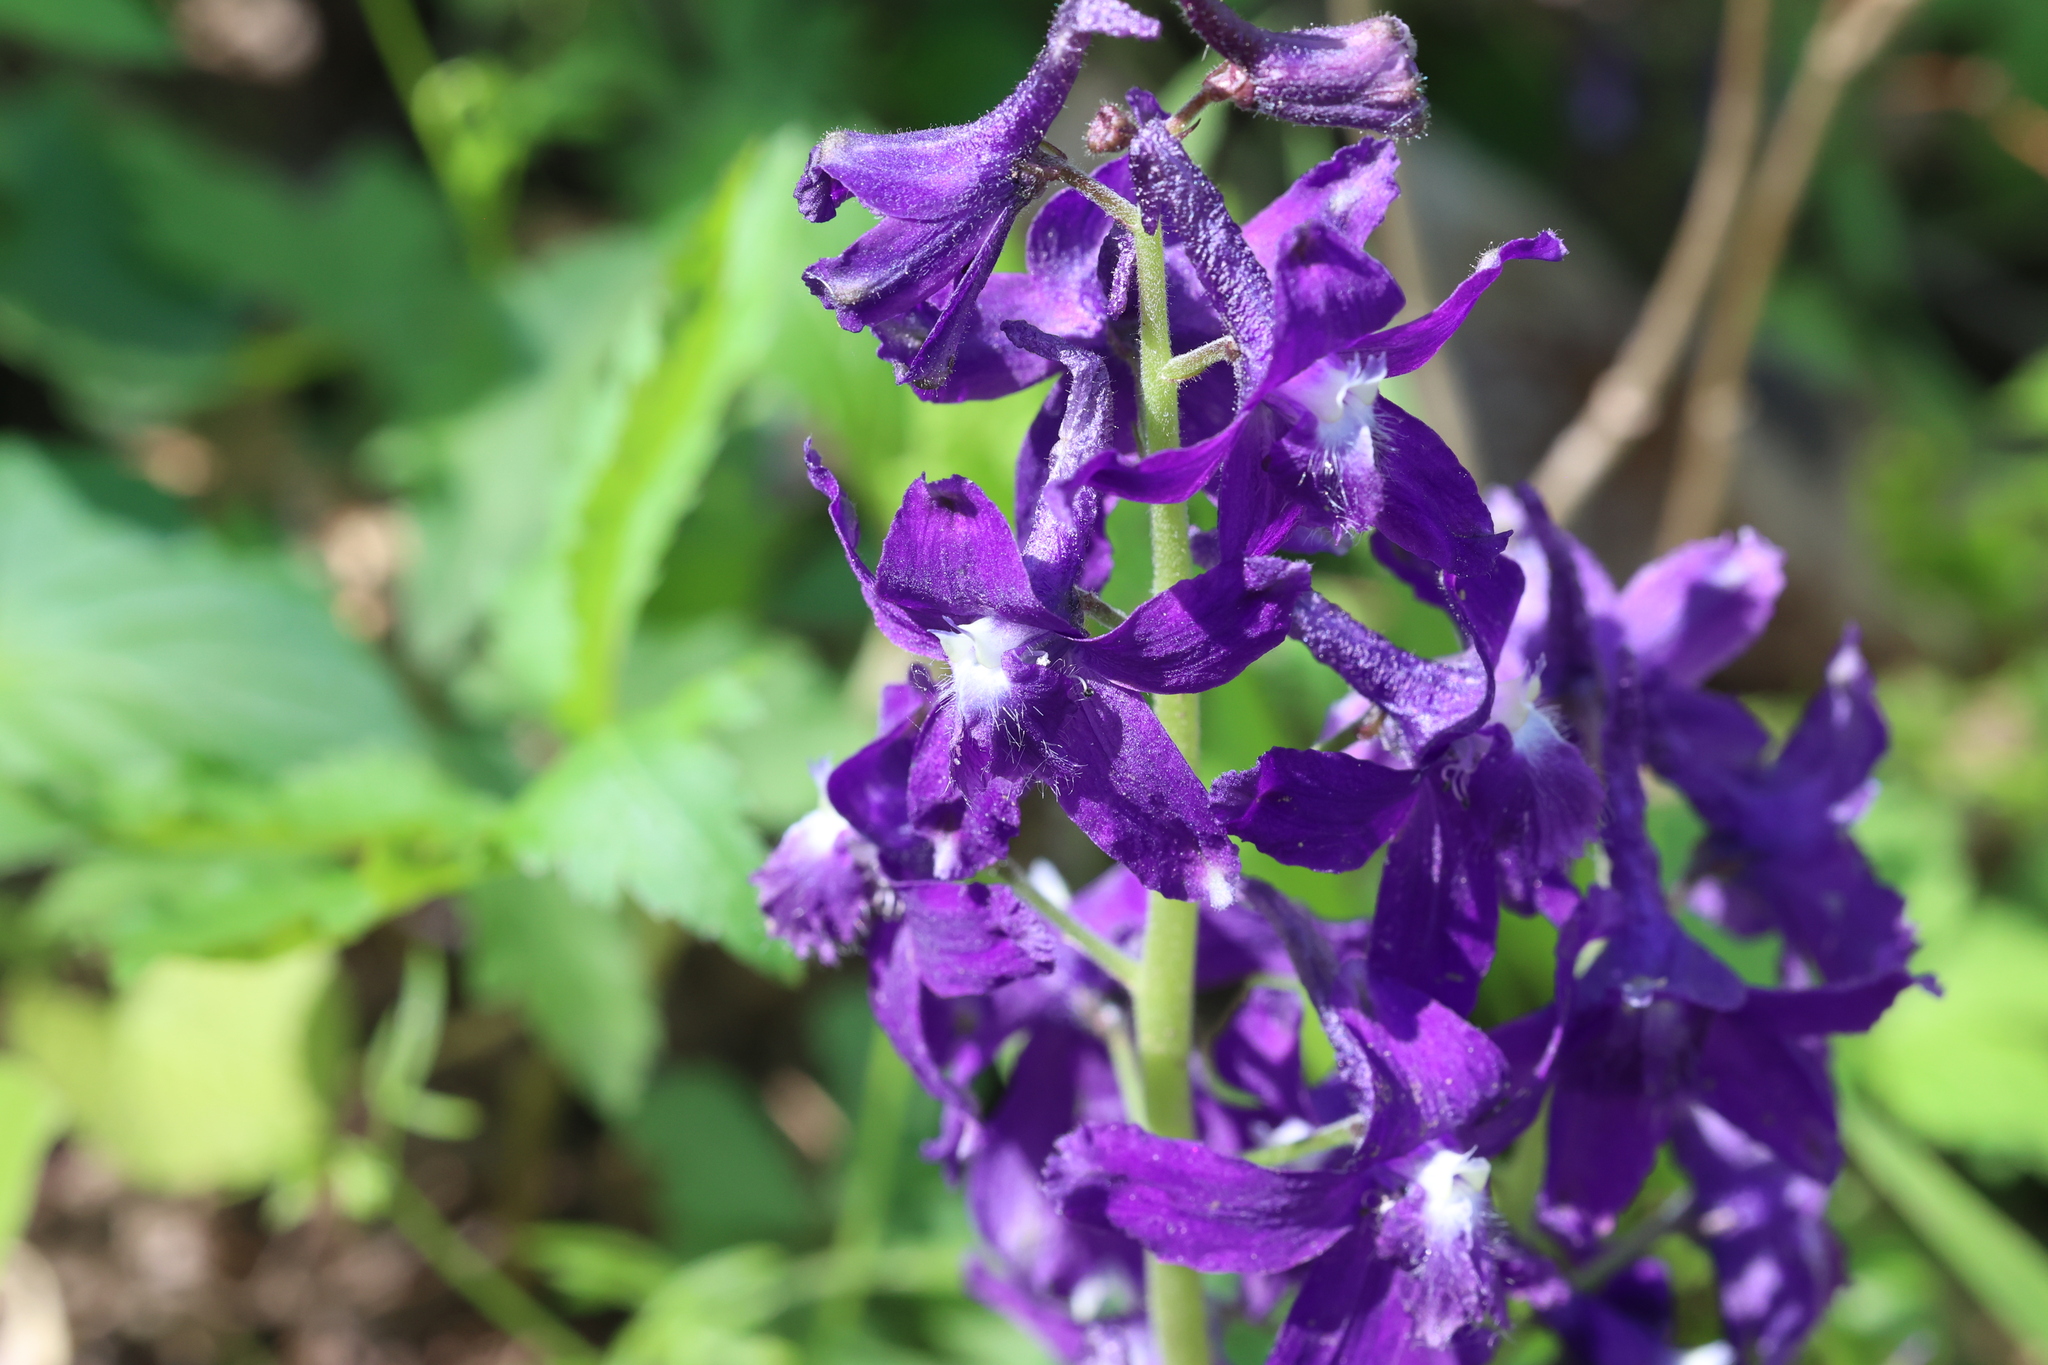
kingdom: Plantae
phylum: Tracheophyta
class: Magnoliopsida
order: Ranunculales
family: Ranunculaceae
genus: Delphinium
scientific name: Delphinium tricorne
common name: Dwarf larkspur
